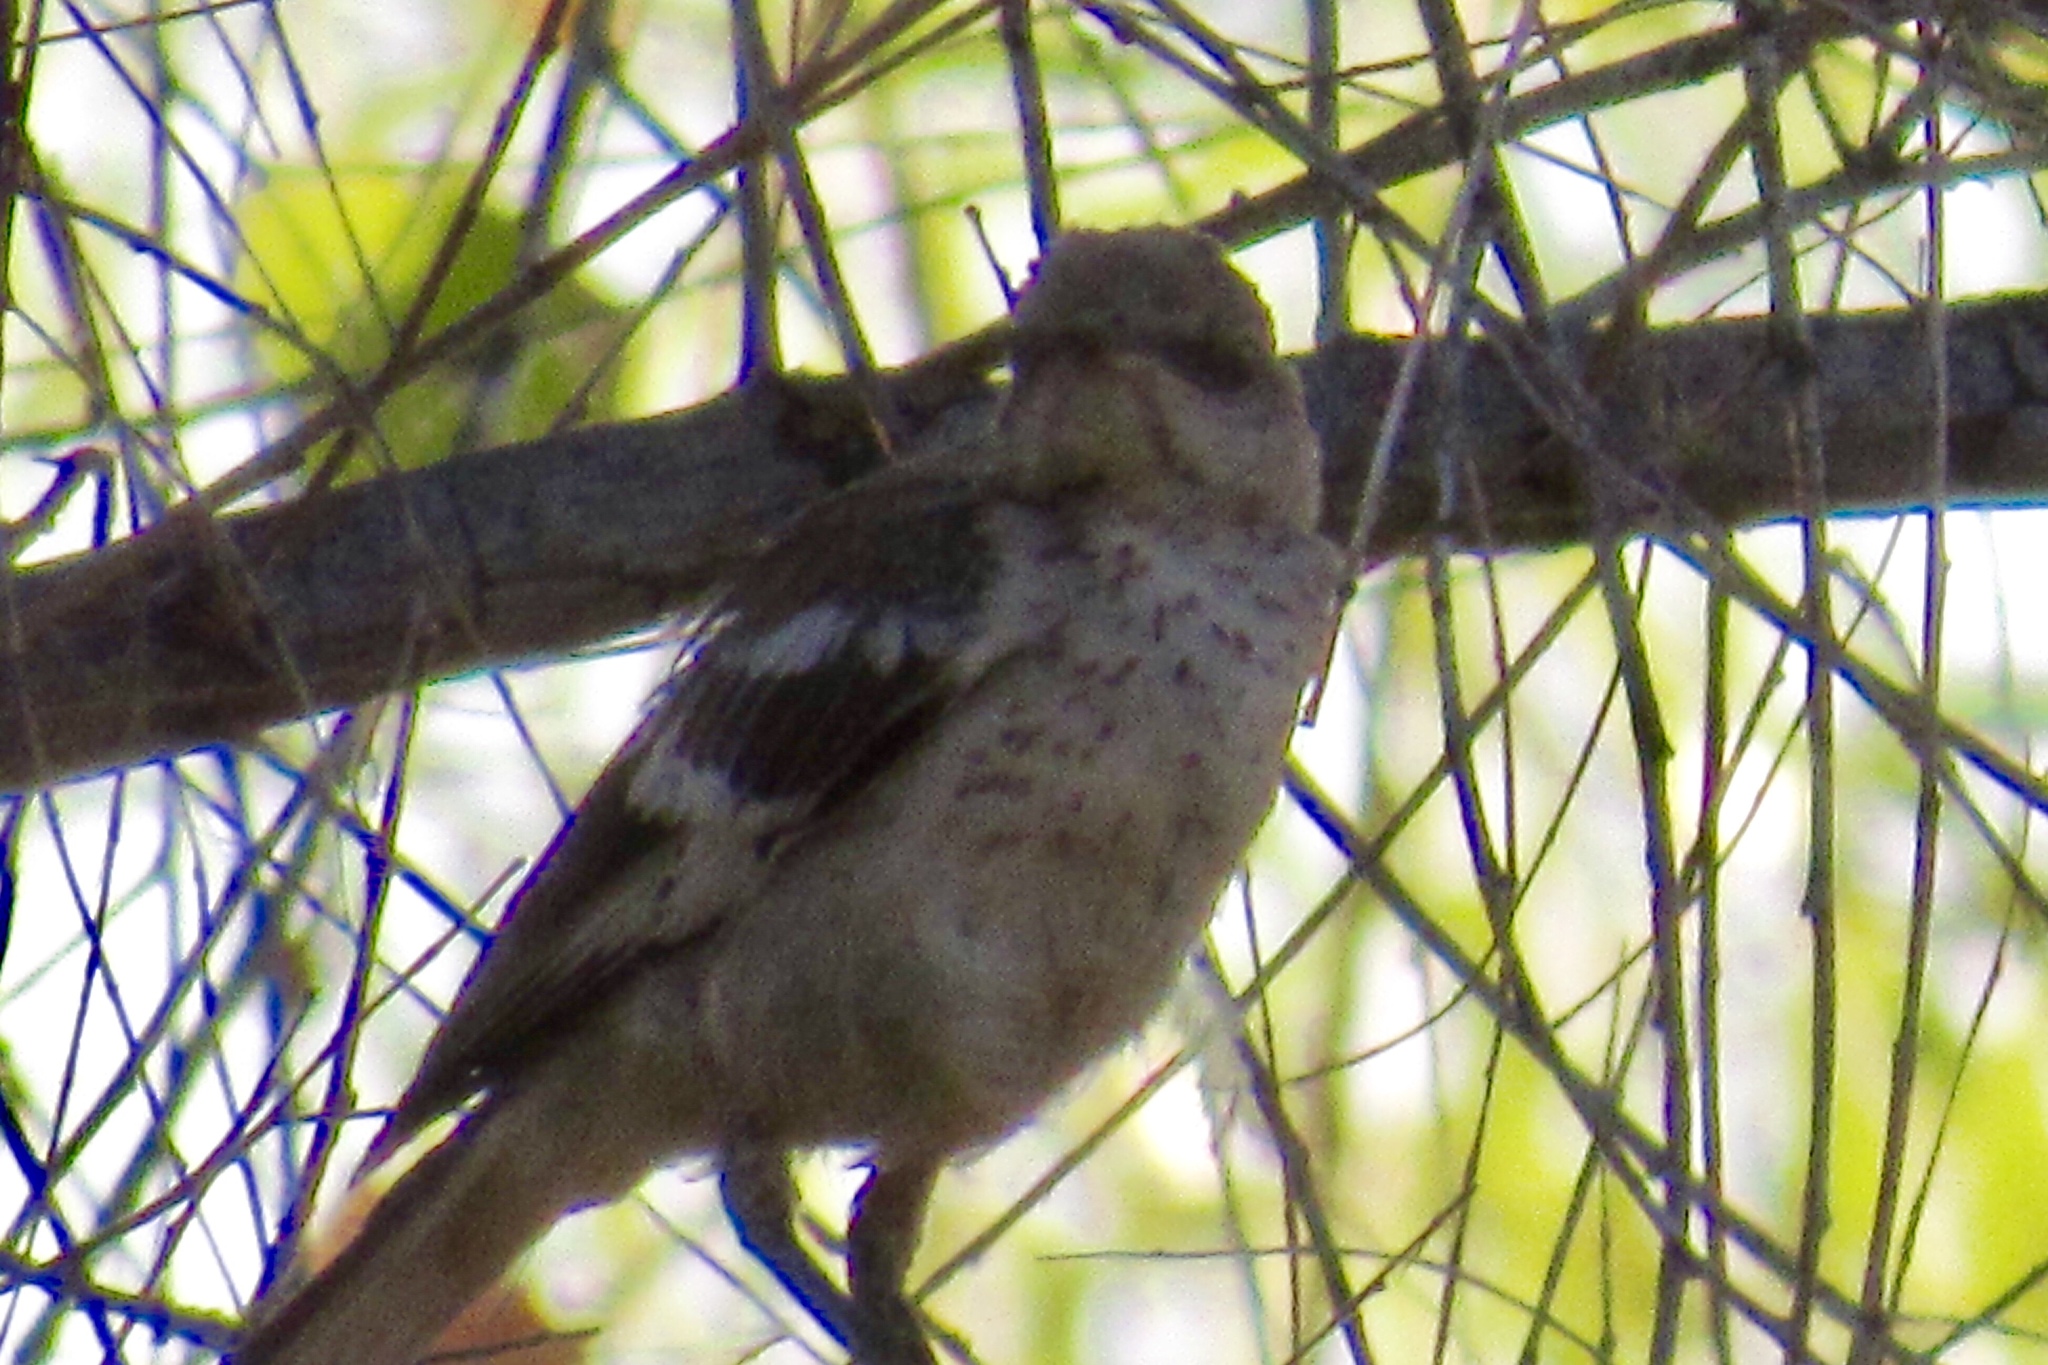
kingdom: Animalia
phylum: Chordata
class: Aves
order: Passeriformes
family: Mimidae
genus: Mimus
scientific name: Mimus polyglottos
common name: Northern mockingbird
